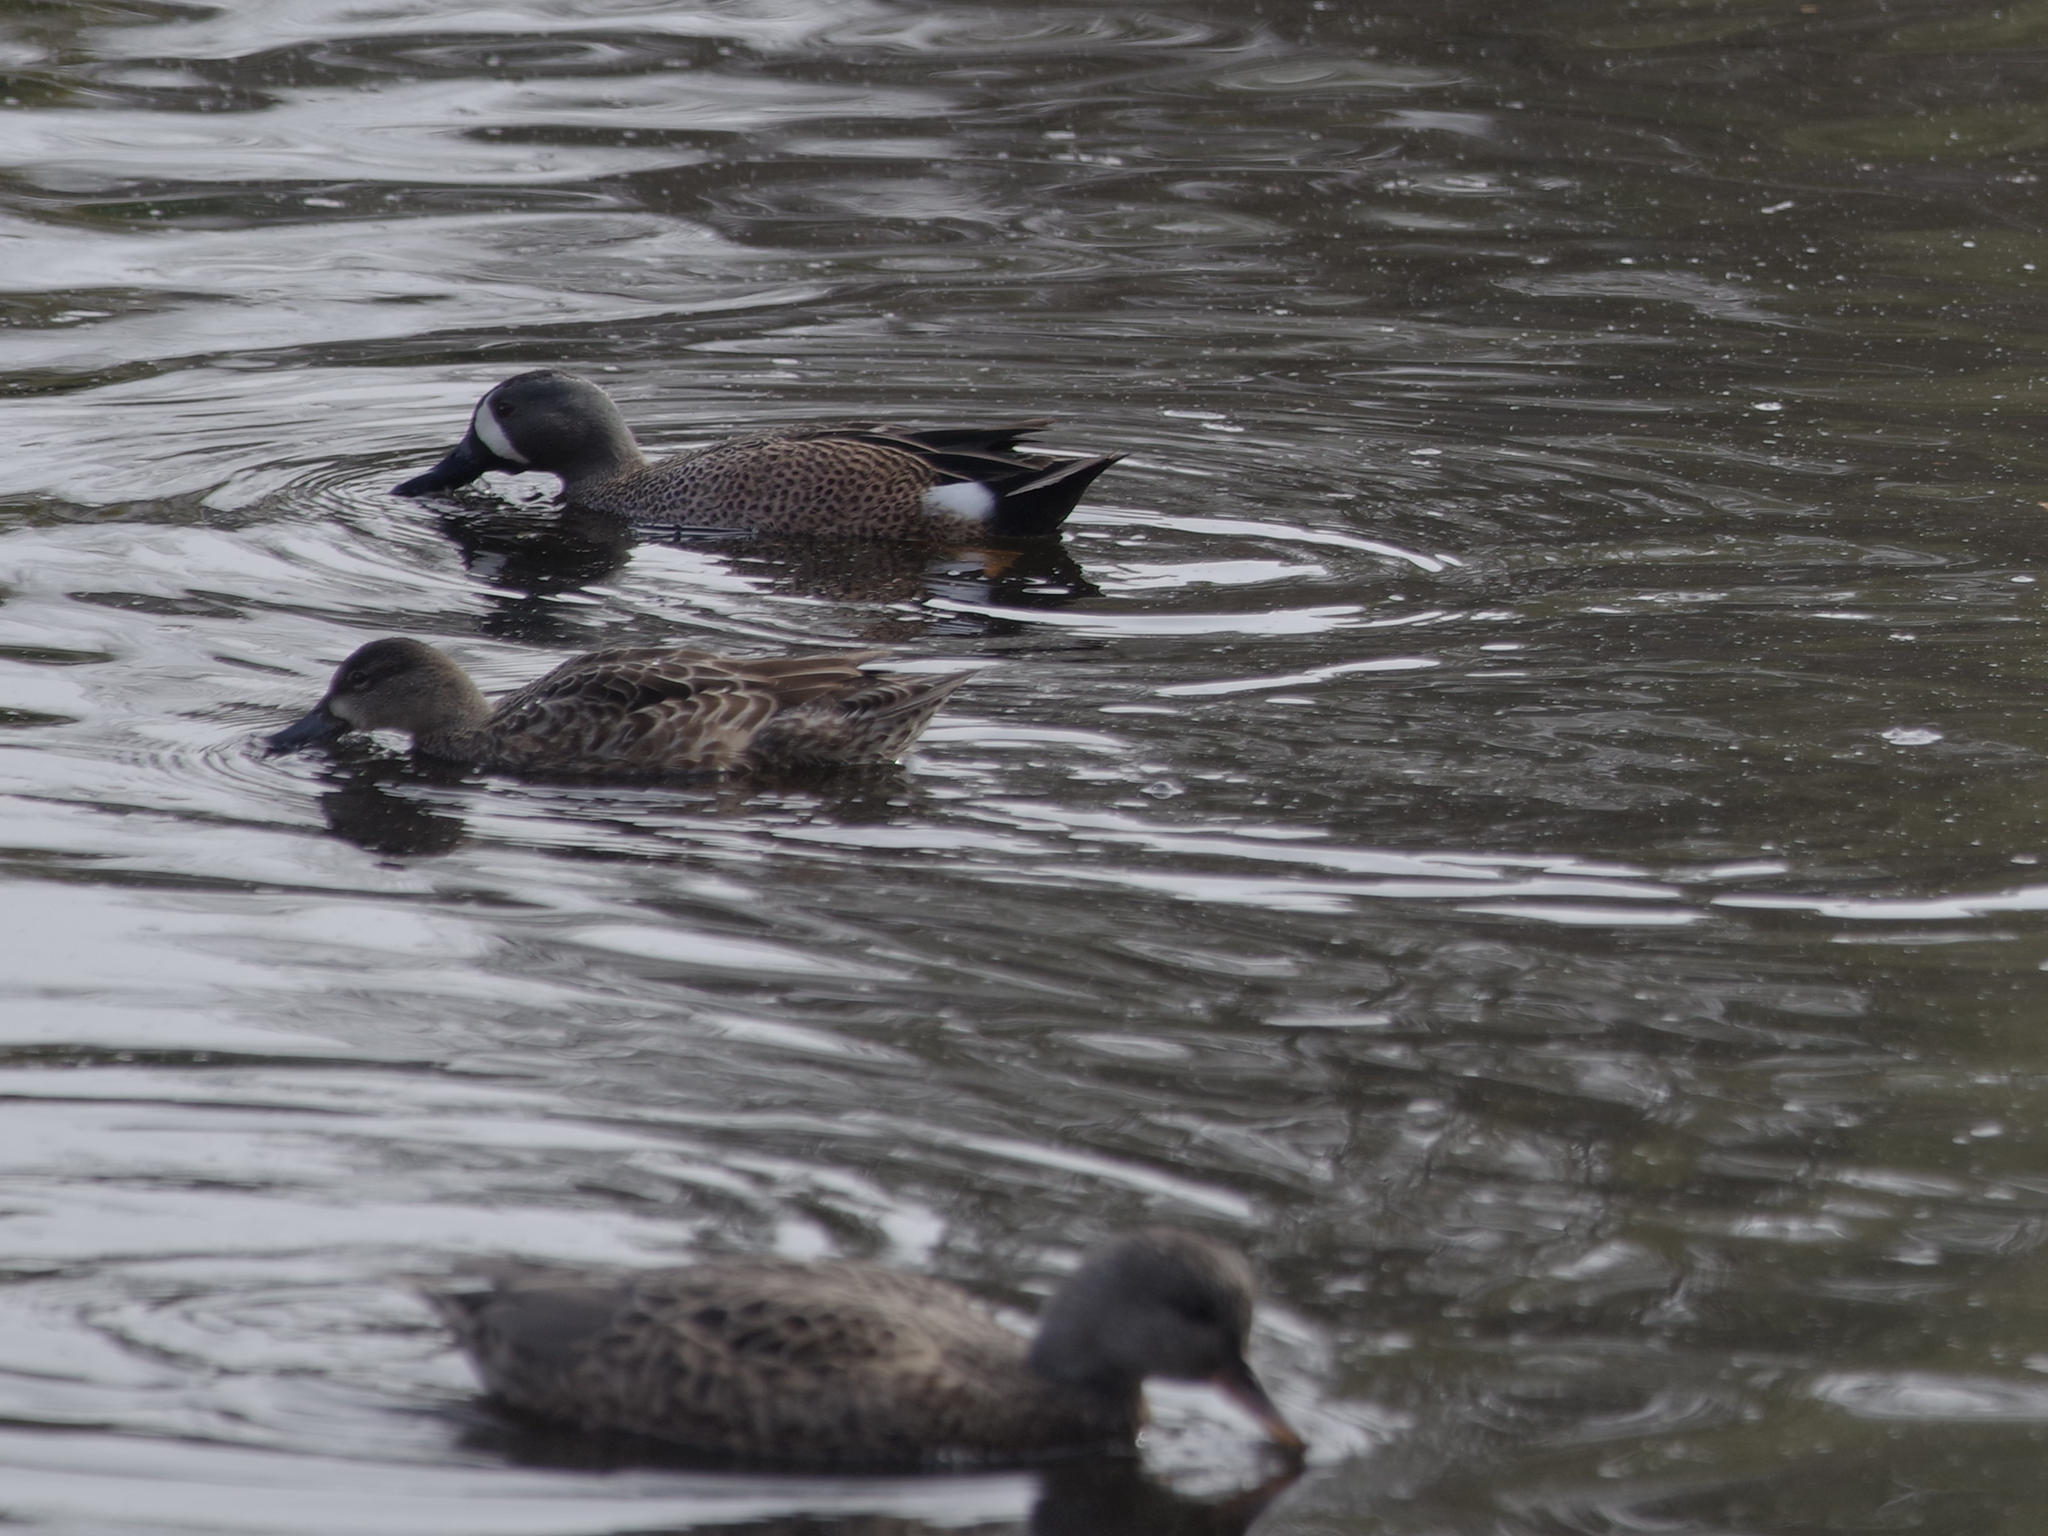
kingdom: Animalia
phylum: Chordata
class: Aves
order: Anseriformes
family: Anatidae
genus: Spatula
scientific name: Spatula discors
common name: Blue-winged teal
